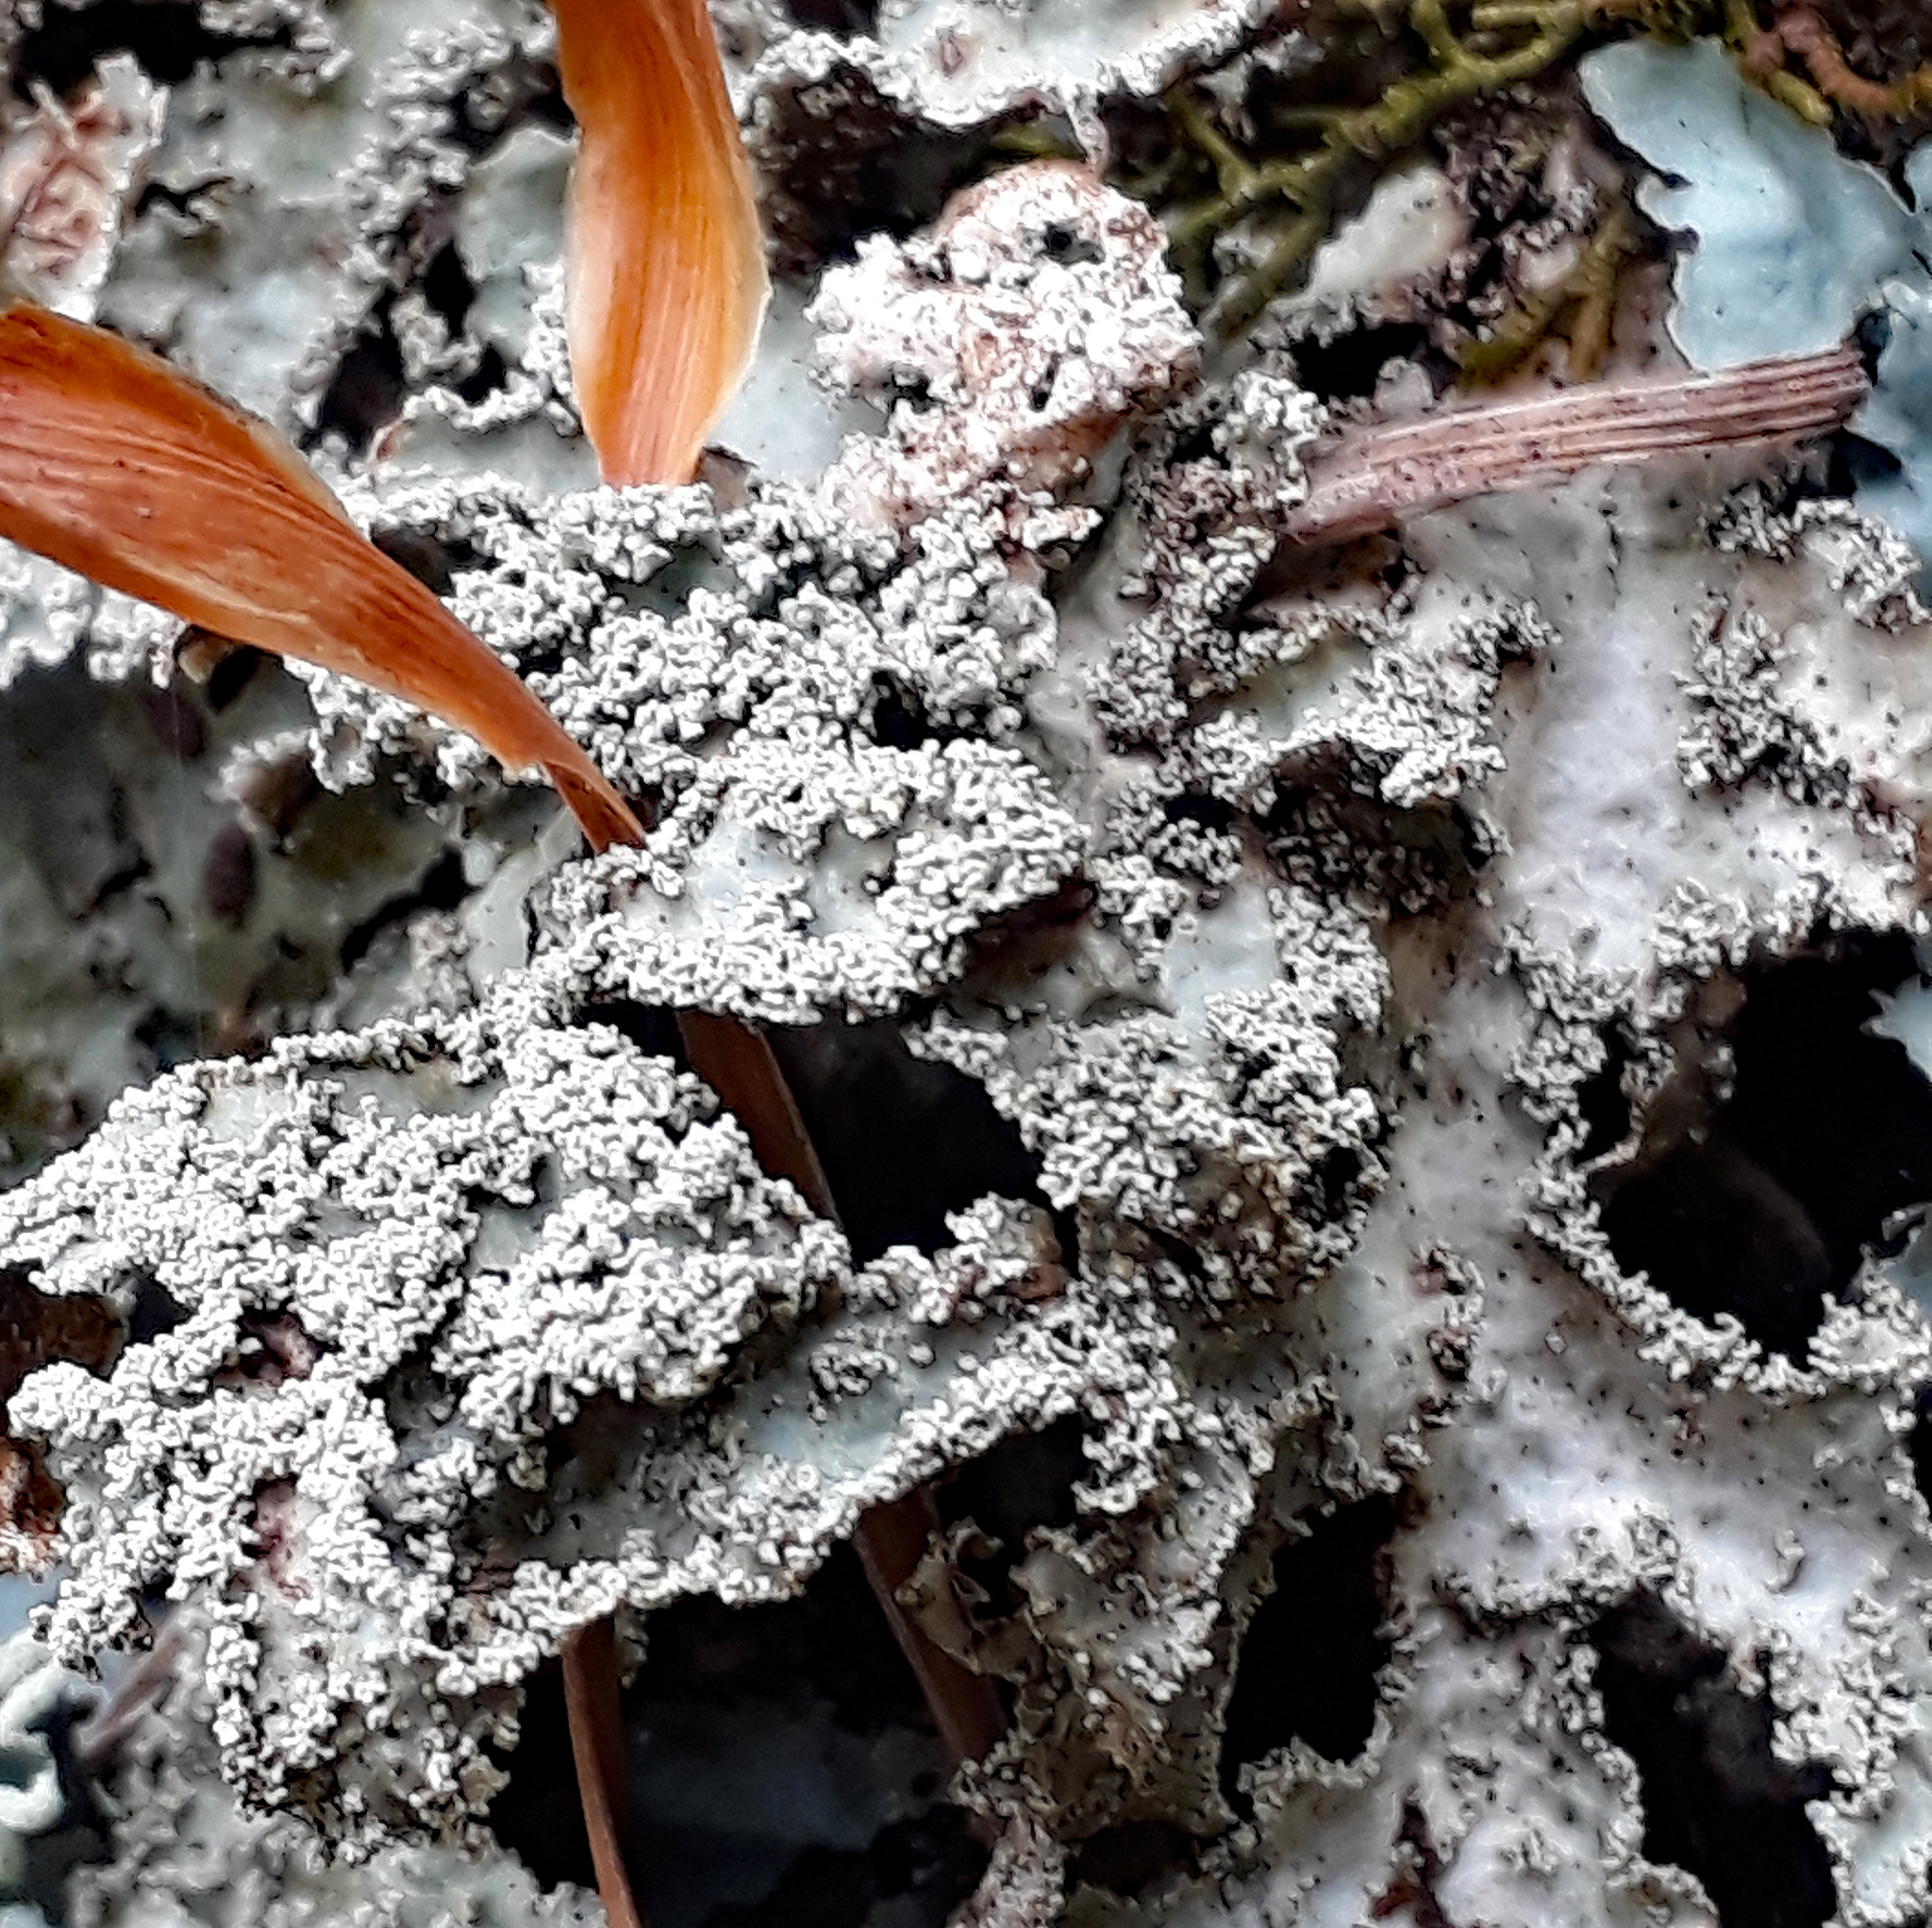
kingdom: Fungi
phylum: Ascomycota
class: Lecanoromycetes
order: Peltigerales
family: Lobariaceae
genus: Pseudocyphellaria
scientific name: Pseudocyphellaria granulata
